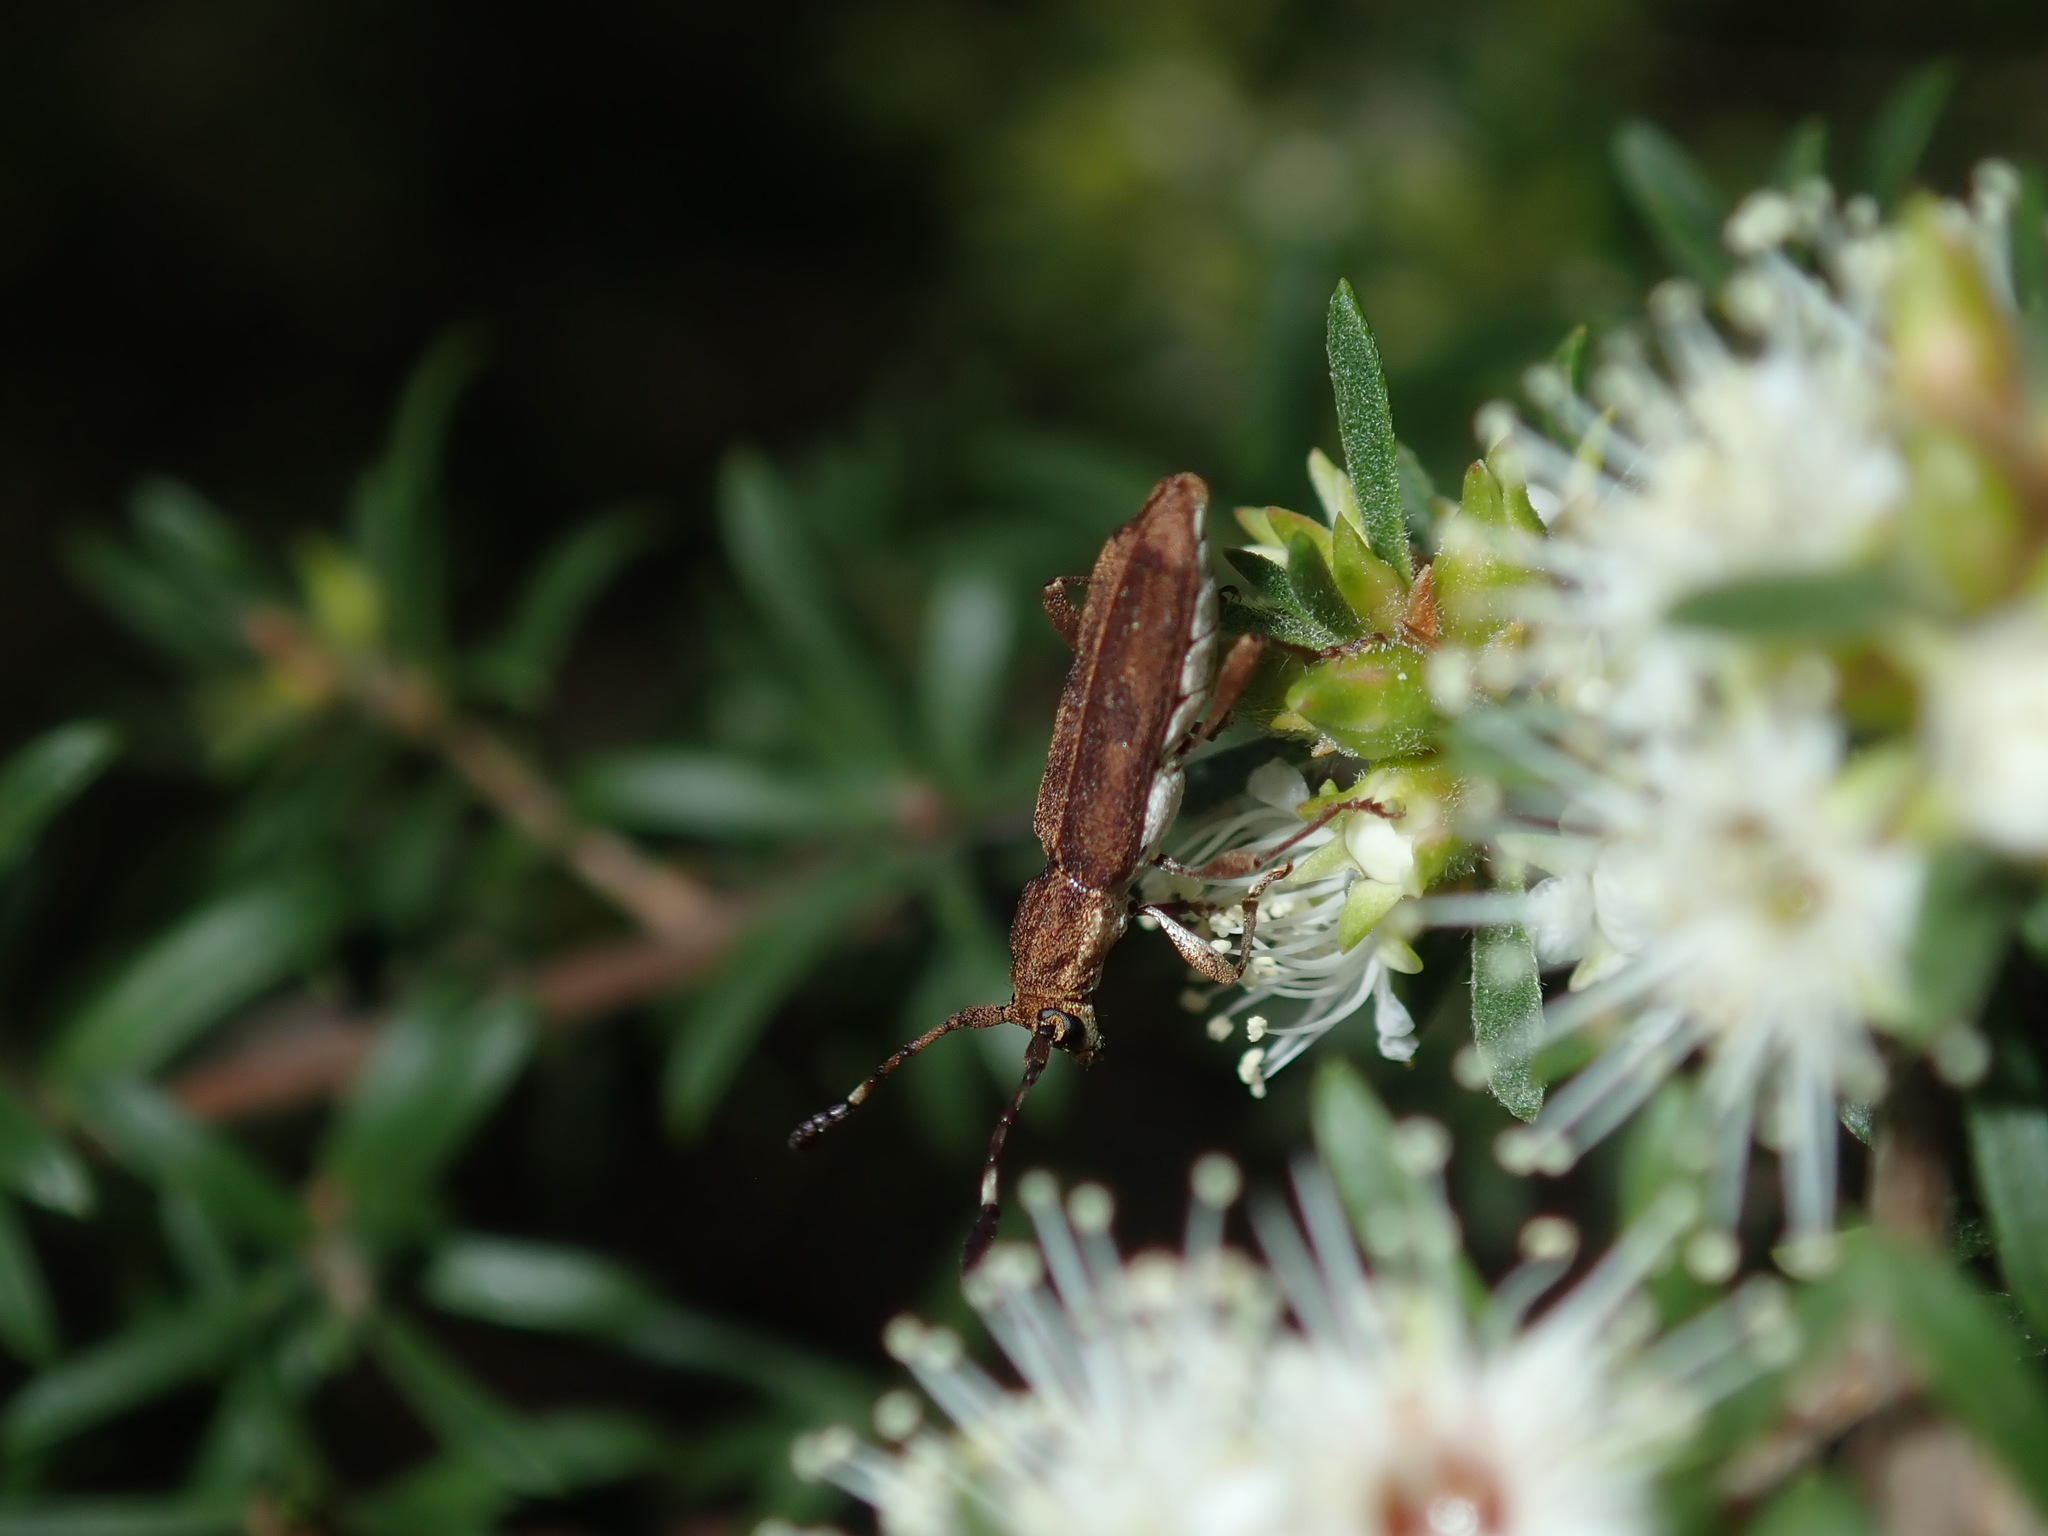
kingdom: Animalia
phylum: Arthropoda
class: Insecta
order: Coleoptera
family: Cerambycidae
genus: Pempsamacra
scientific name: Pempsamacra tillides
